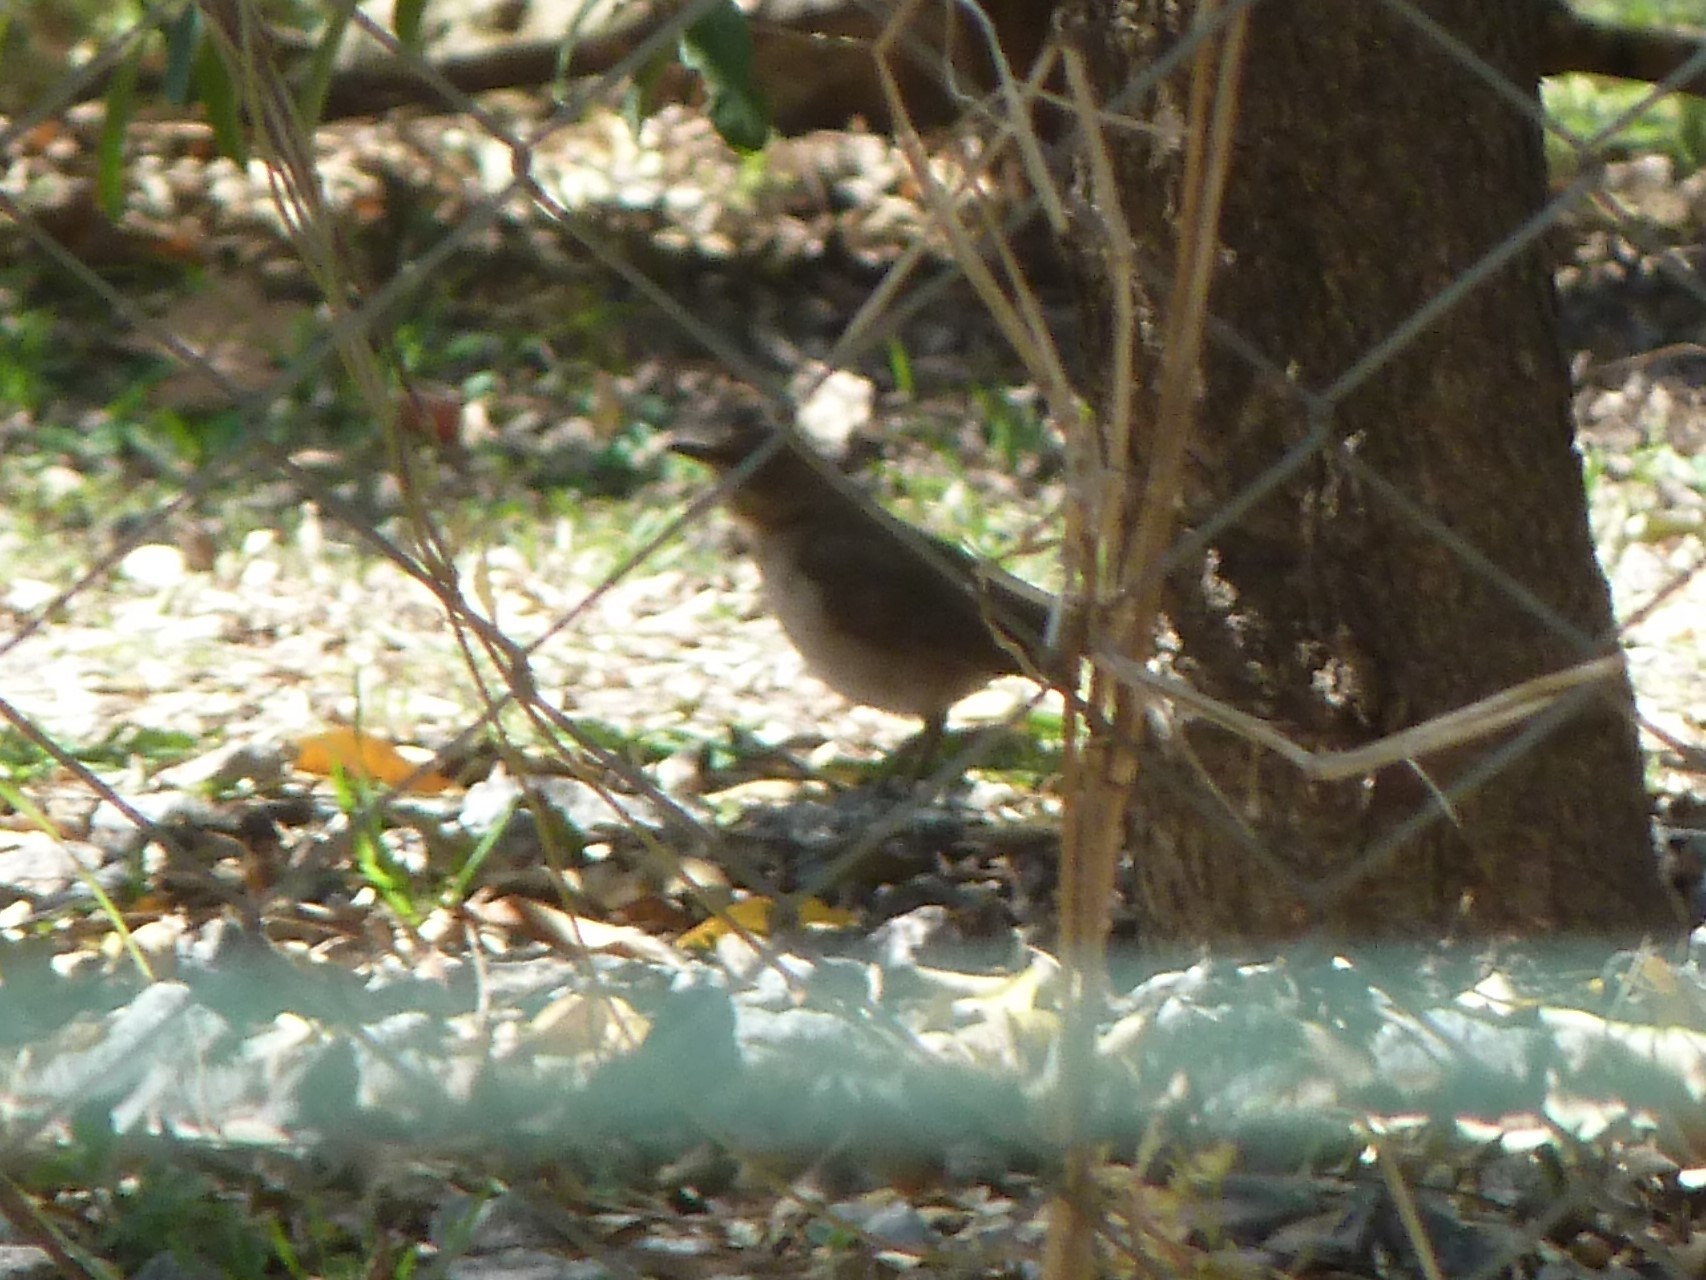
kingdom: Animalia
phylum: Chordata
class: Aves
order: Passeriformes
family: Turdidae
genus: Turdus
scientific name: Turdus amaurochalinus
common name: Creamy-bellied thrush
